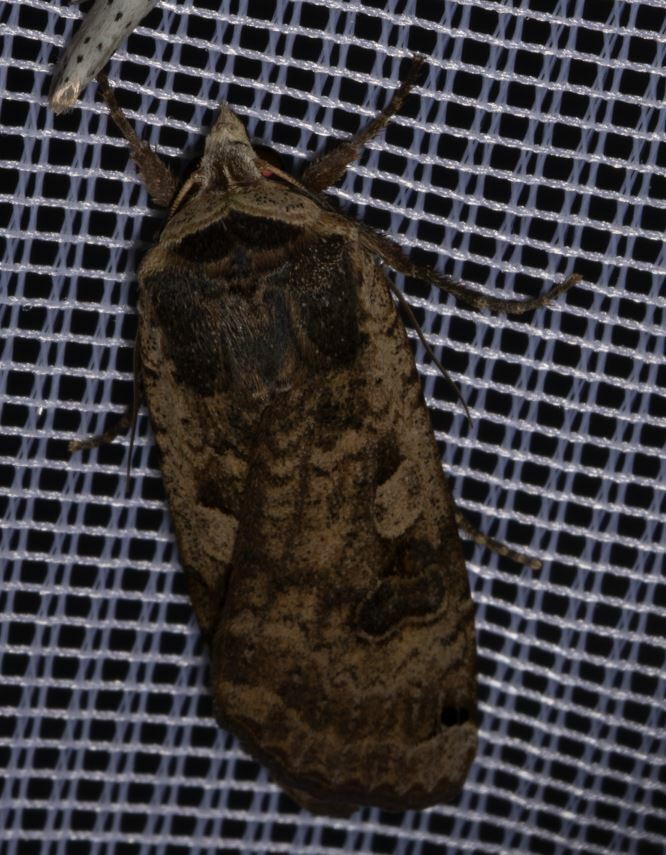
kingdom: Animalia
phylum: Arthropoda
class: Insecta
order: Lepidoptera
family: Noctuidae
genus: Noctua
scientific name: Noctua pronuba
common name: Large yellow underwing
